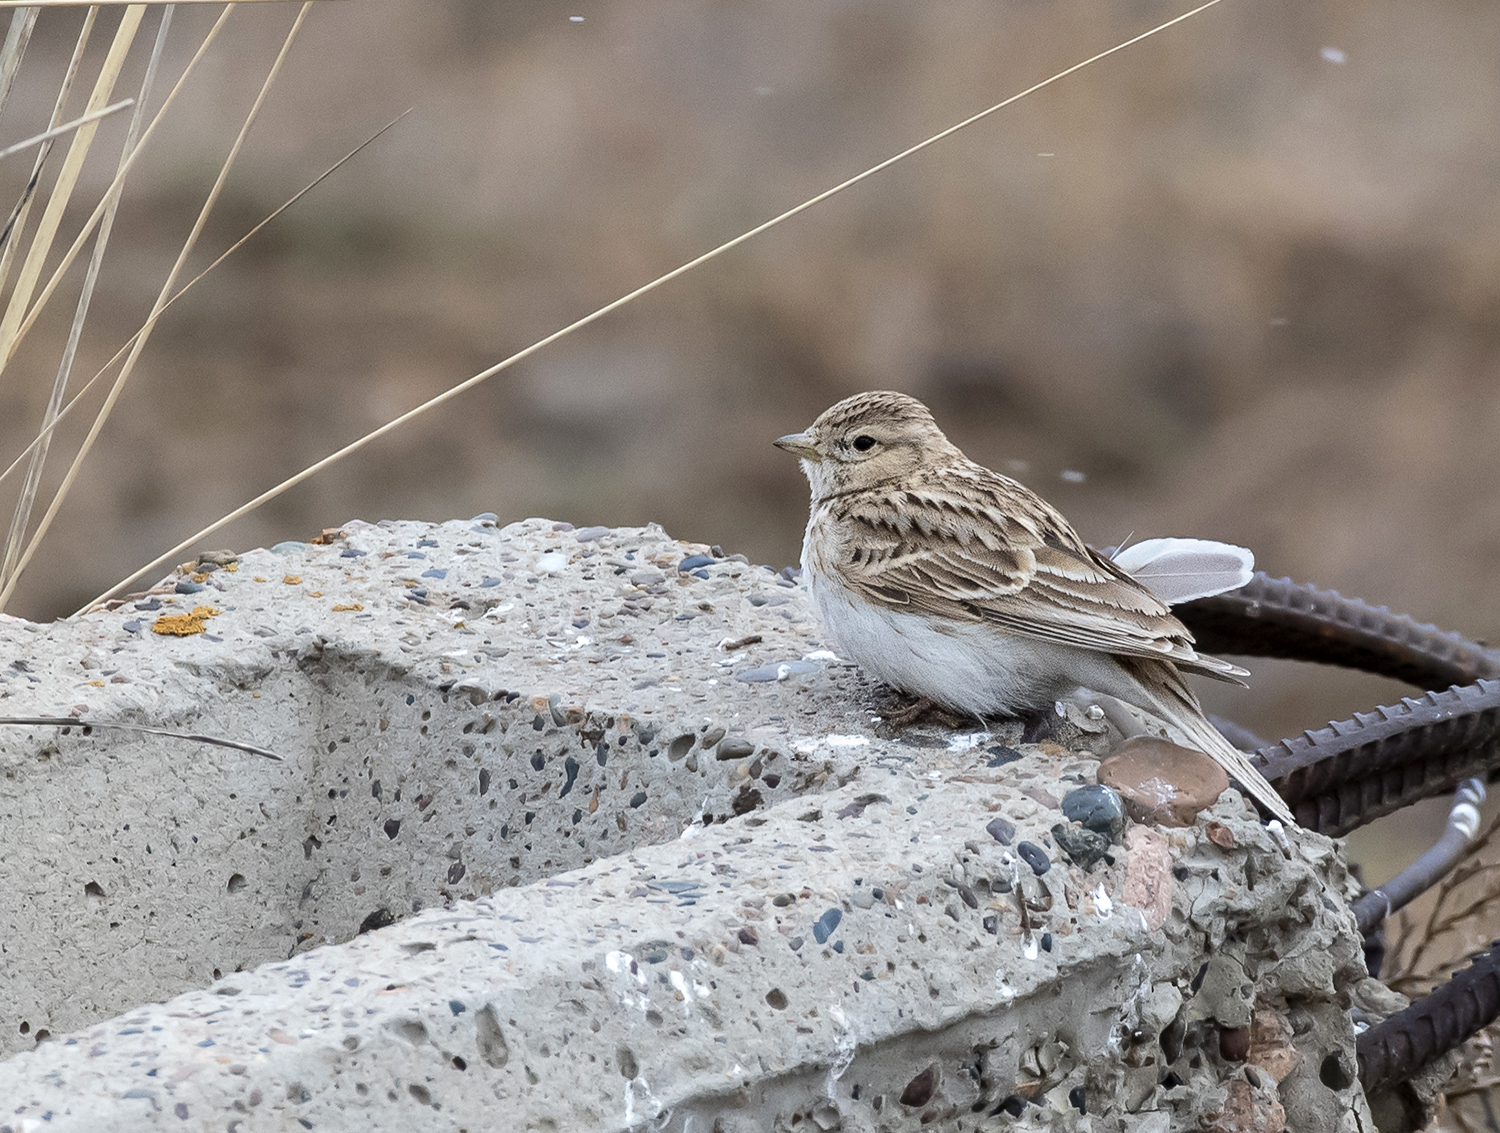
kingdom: Animalia
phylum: Chordata
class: Aves
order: Passeriformes
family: Alaudidae
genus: Alaudala
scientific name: Alaudala cheleensis
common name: Asian short-toed lark
